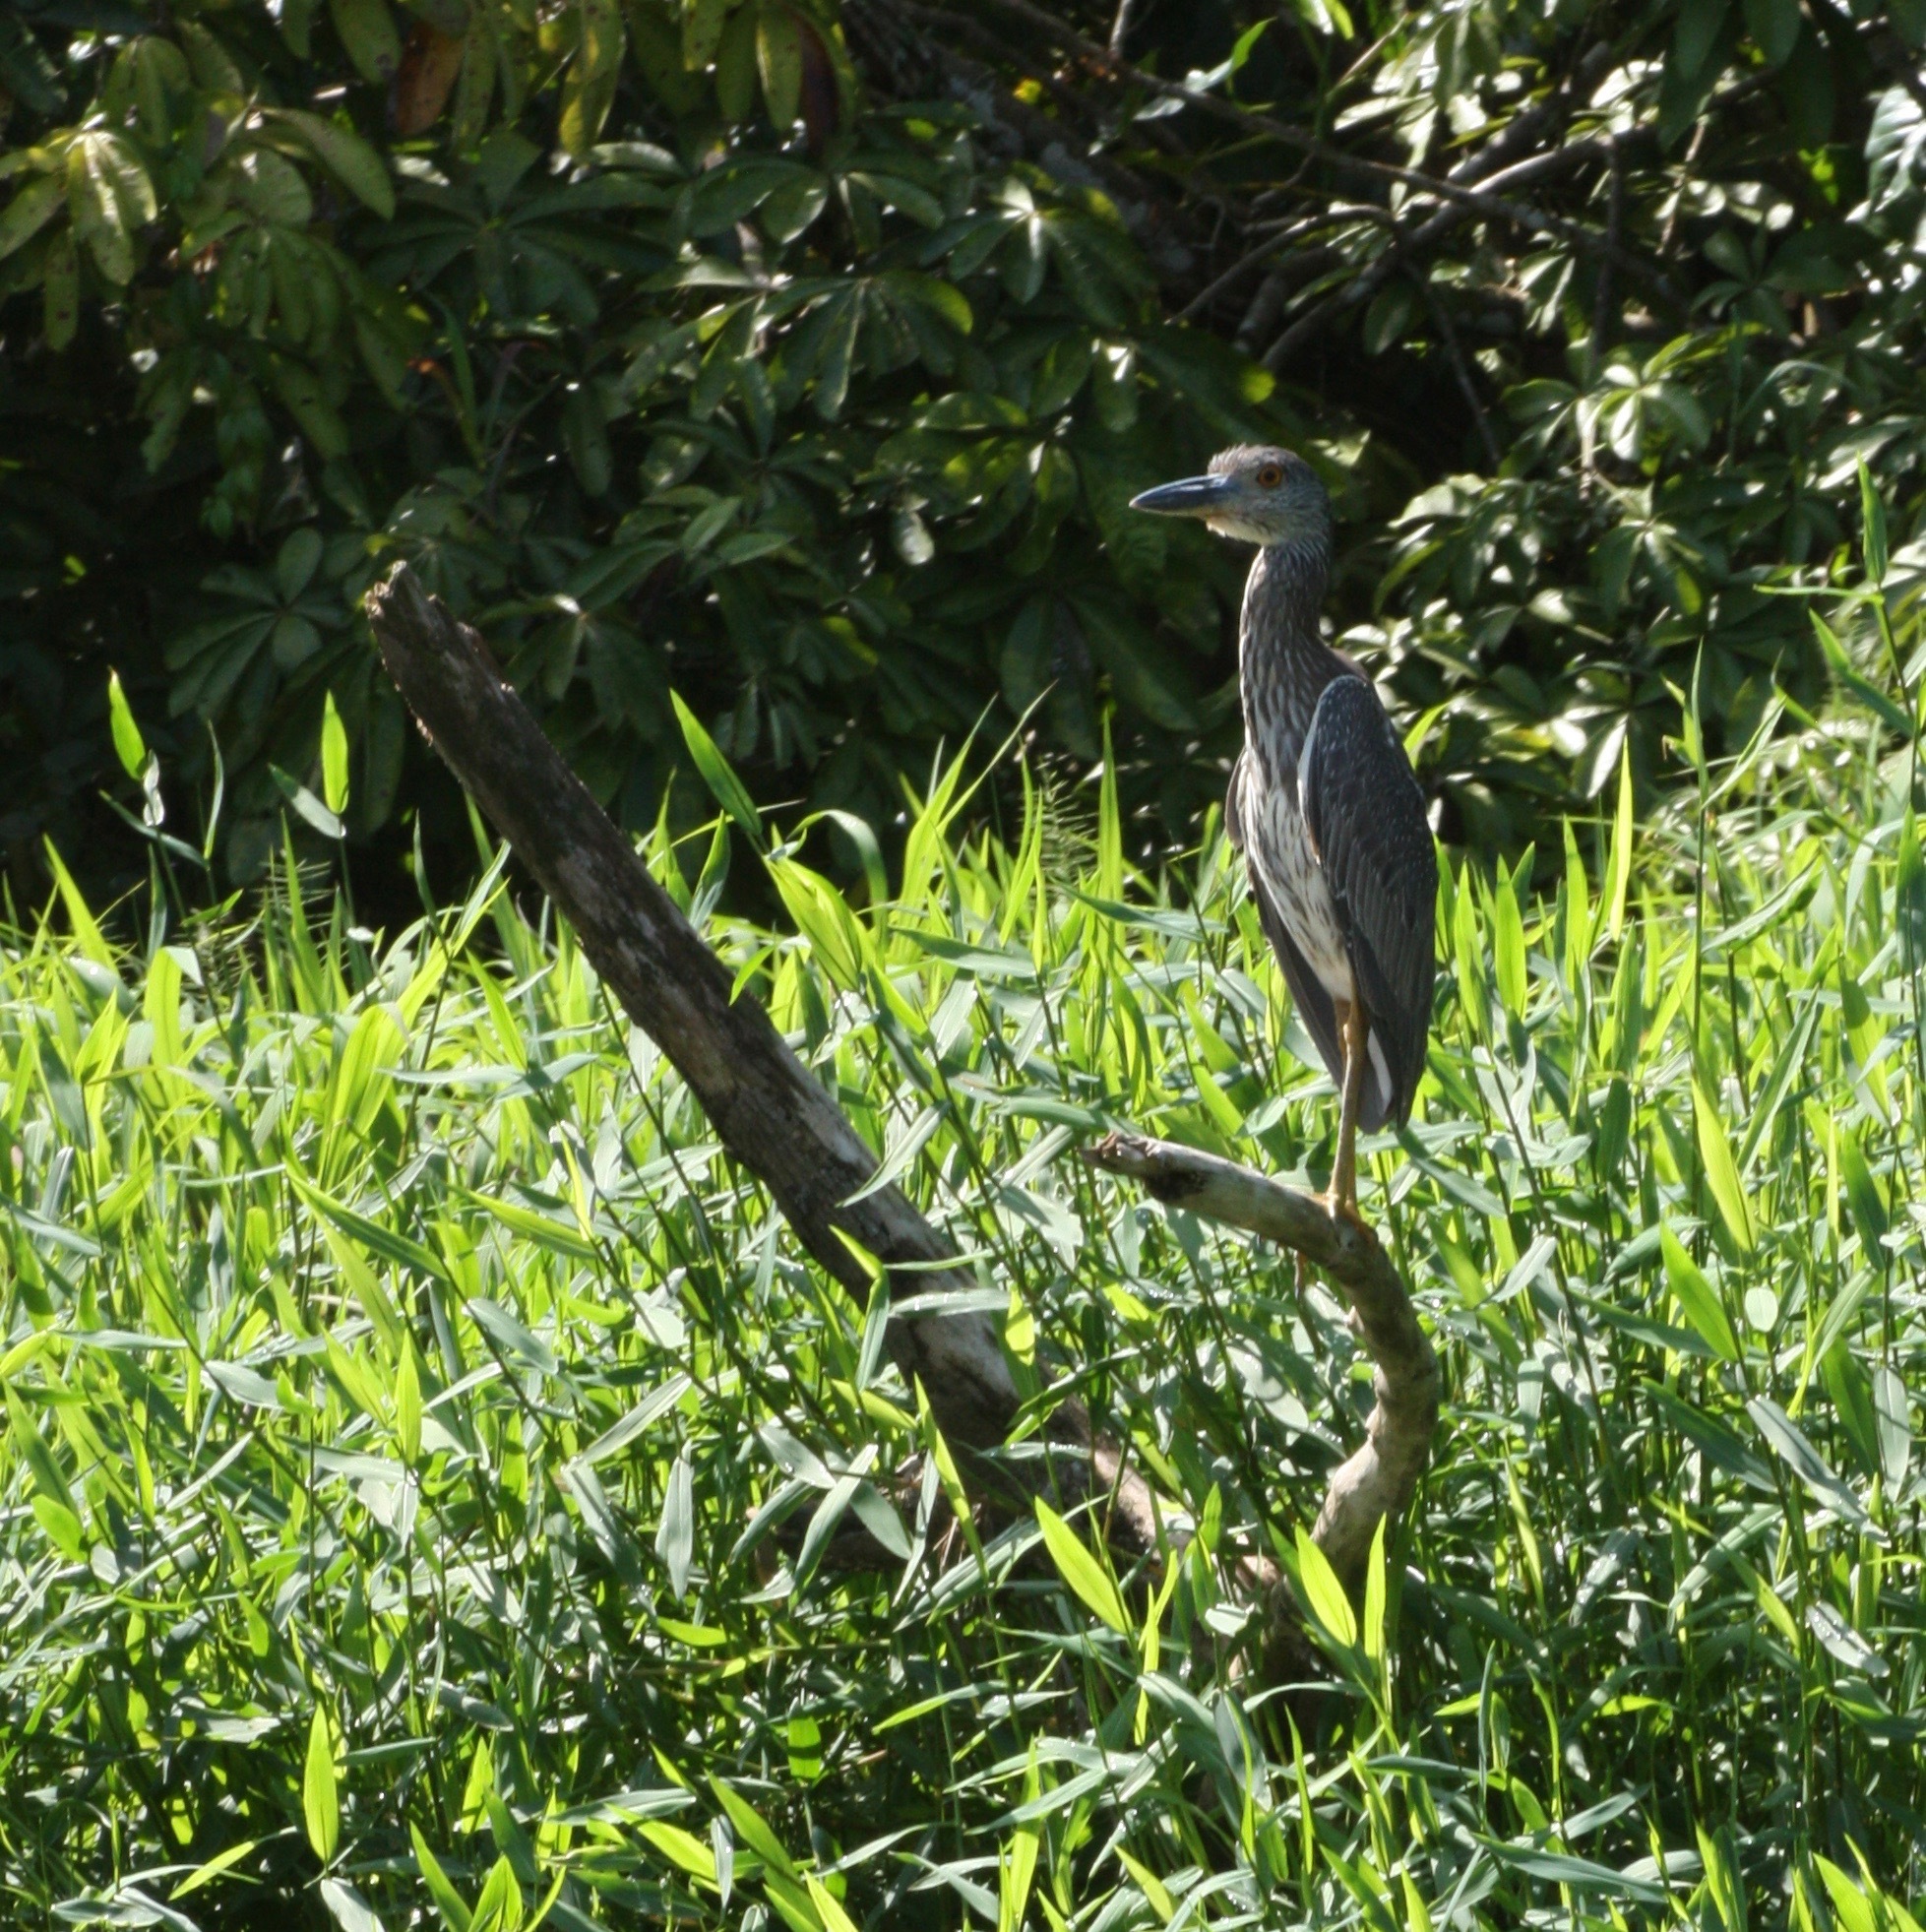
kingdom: Animalia
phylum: Chordata
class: Aves
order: Pelecaniformes
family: Ardeidae
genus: Nyctanassa
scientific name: Nyctanassa violacea
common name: Yellow-crowned night heron
